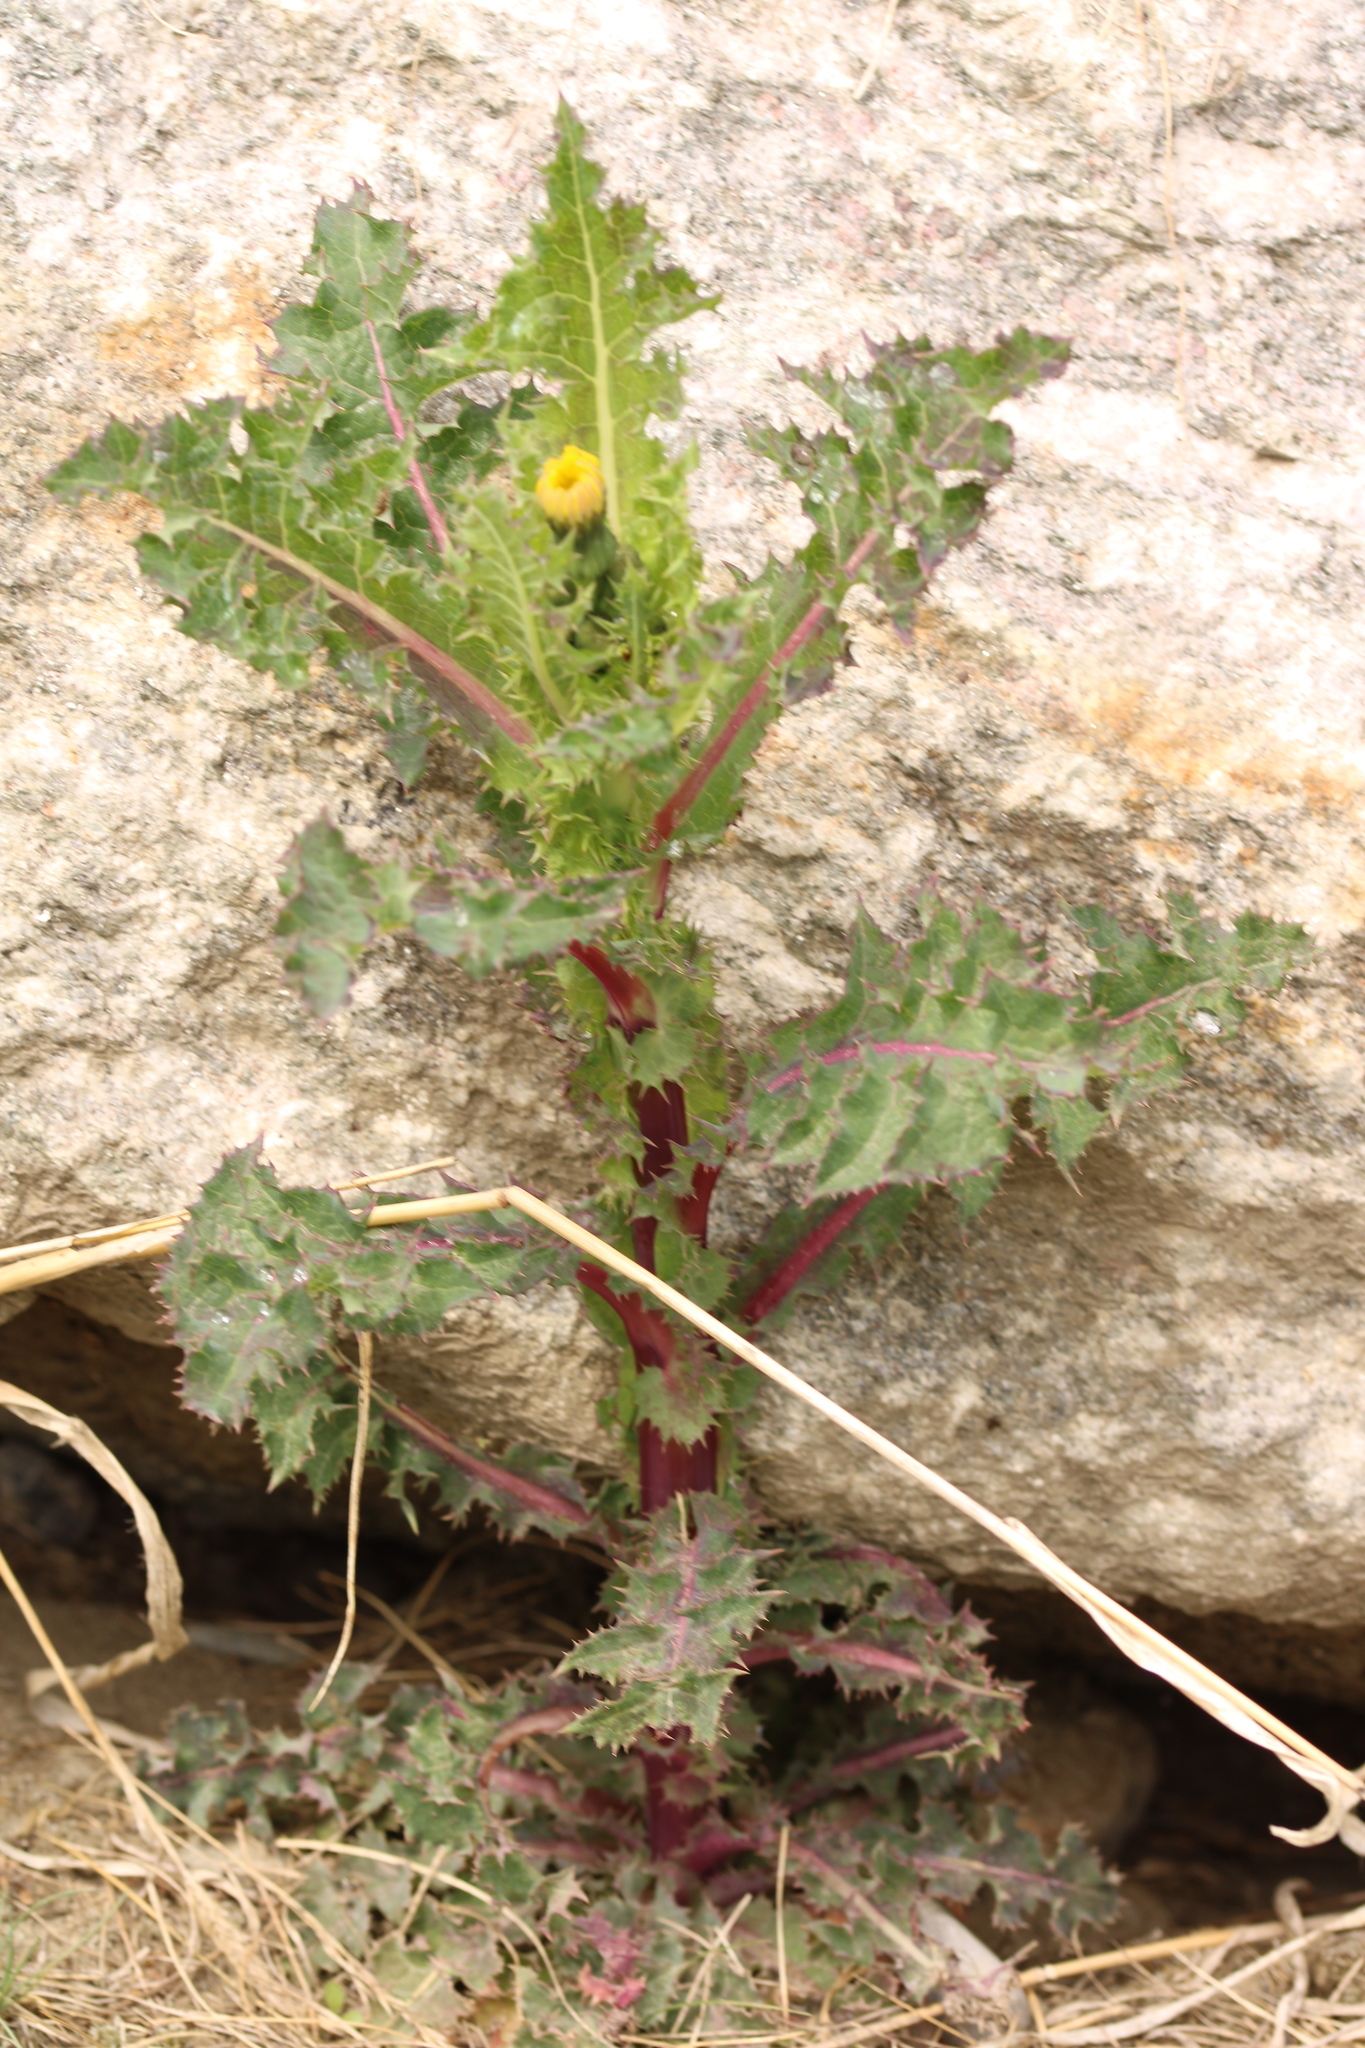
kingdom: Plantae
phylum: Tracheophyta
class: Magnoliopsida
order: Asterales
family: Asteraceae
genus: Sonchus
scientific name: Sonchus asper
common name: Prickly sow-thistle
